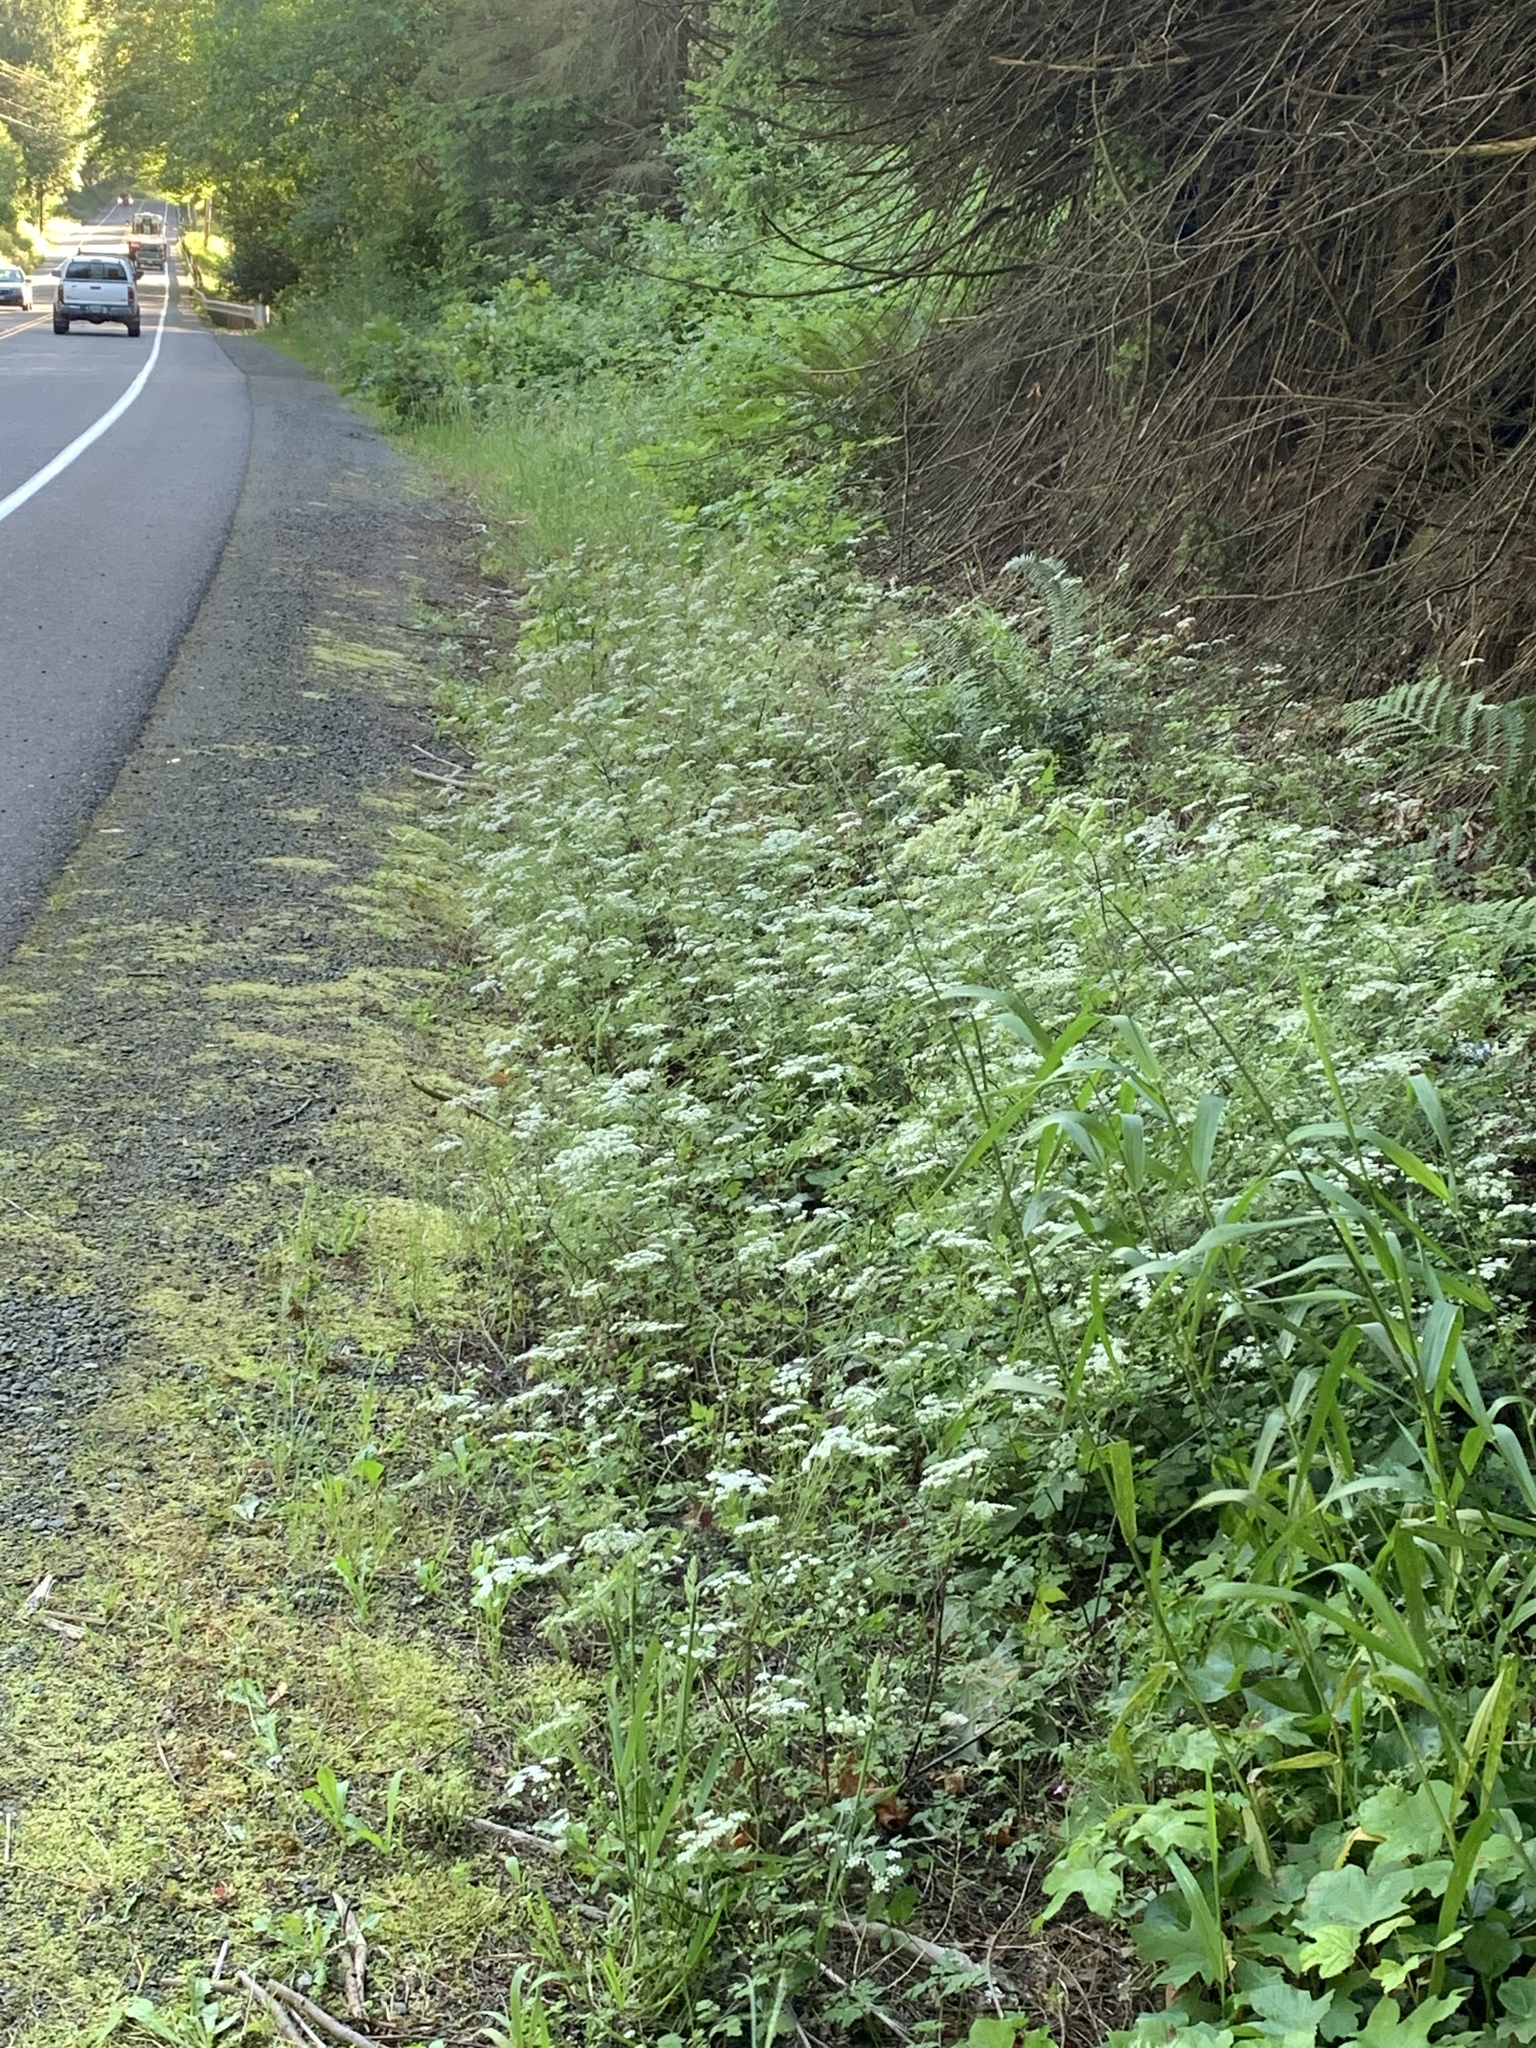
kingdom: Plantae
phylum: Tracheophyta
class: Magnoliopsida
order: Apiales
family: Apiaceae
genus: Chaerophyllum
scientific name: Chaerophyllum temulum
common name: Rough chervil
